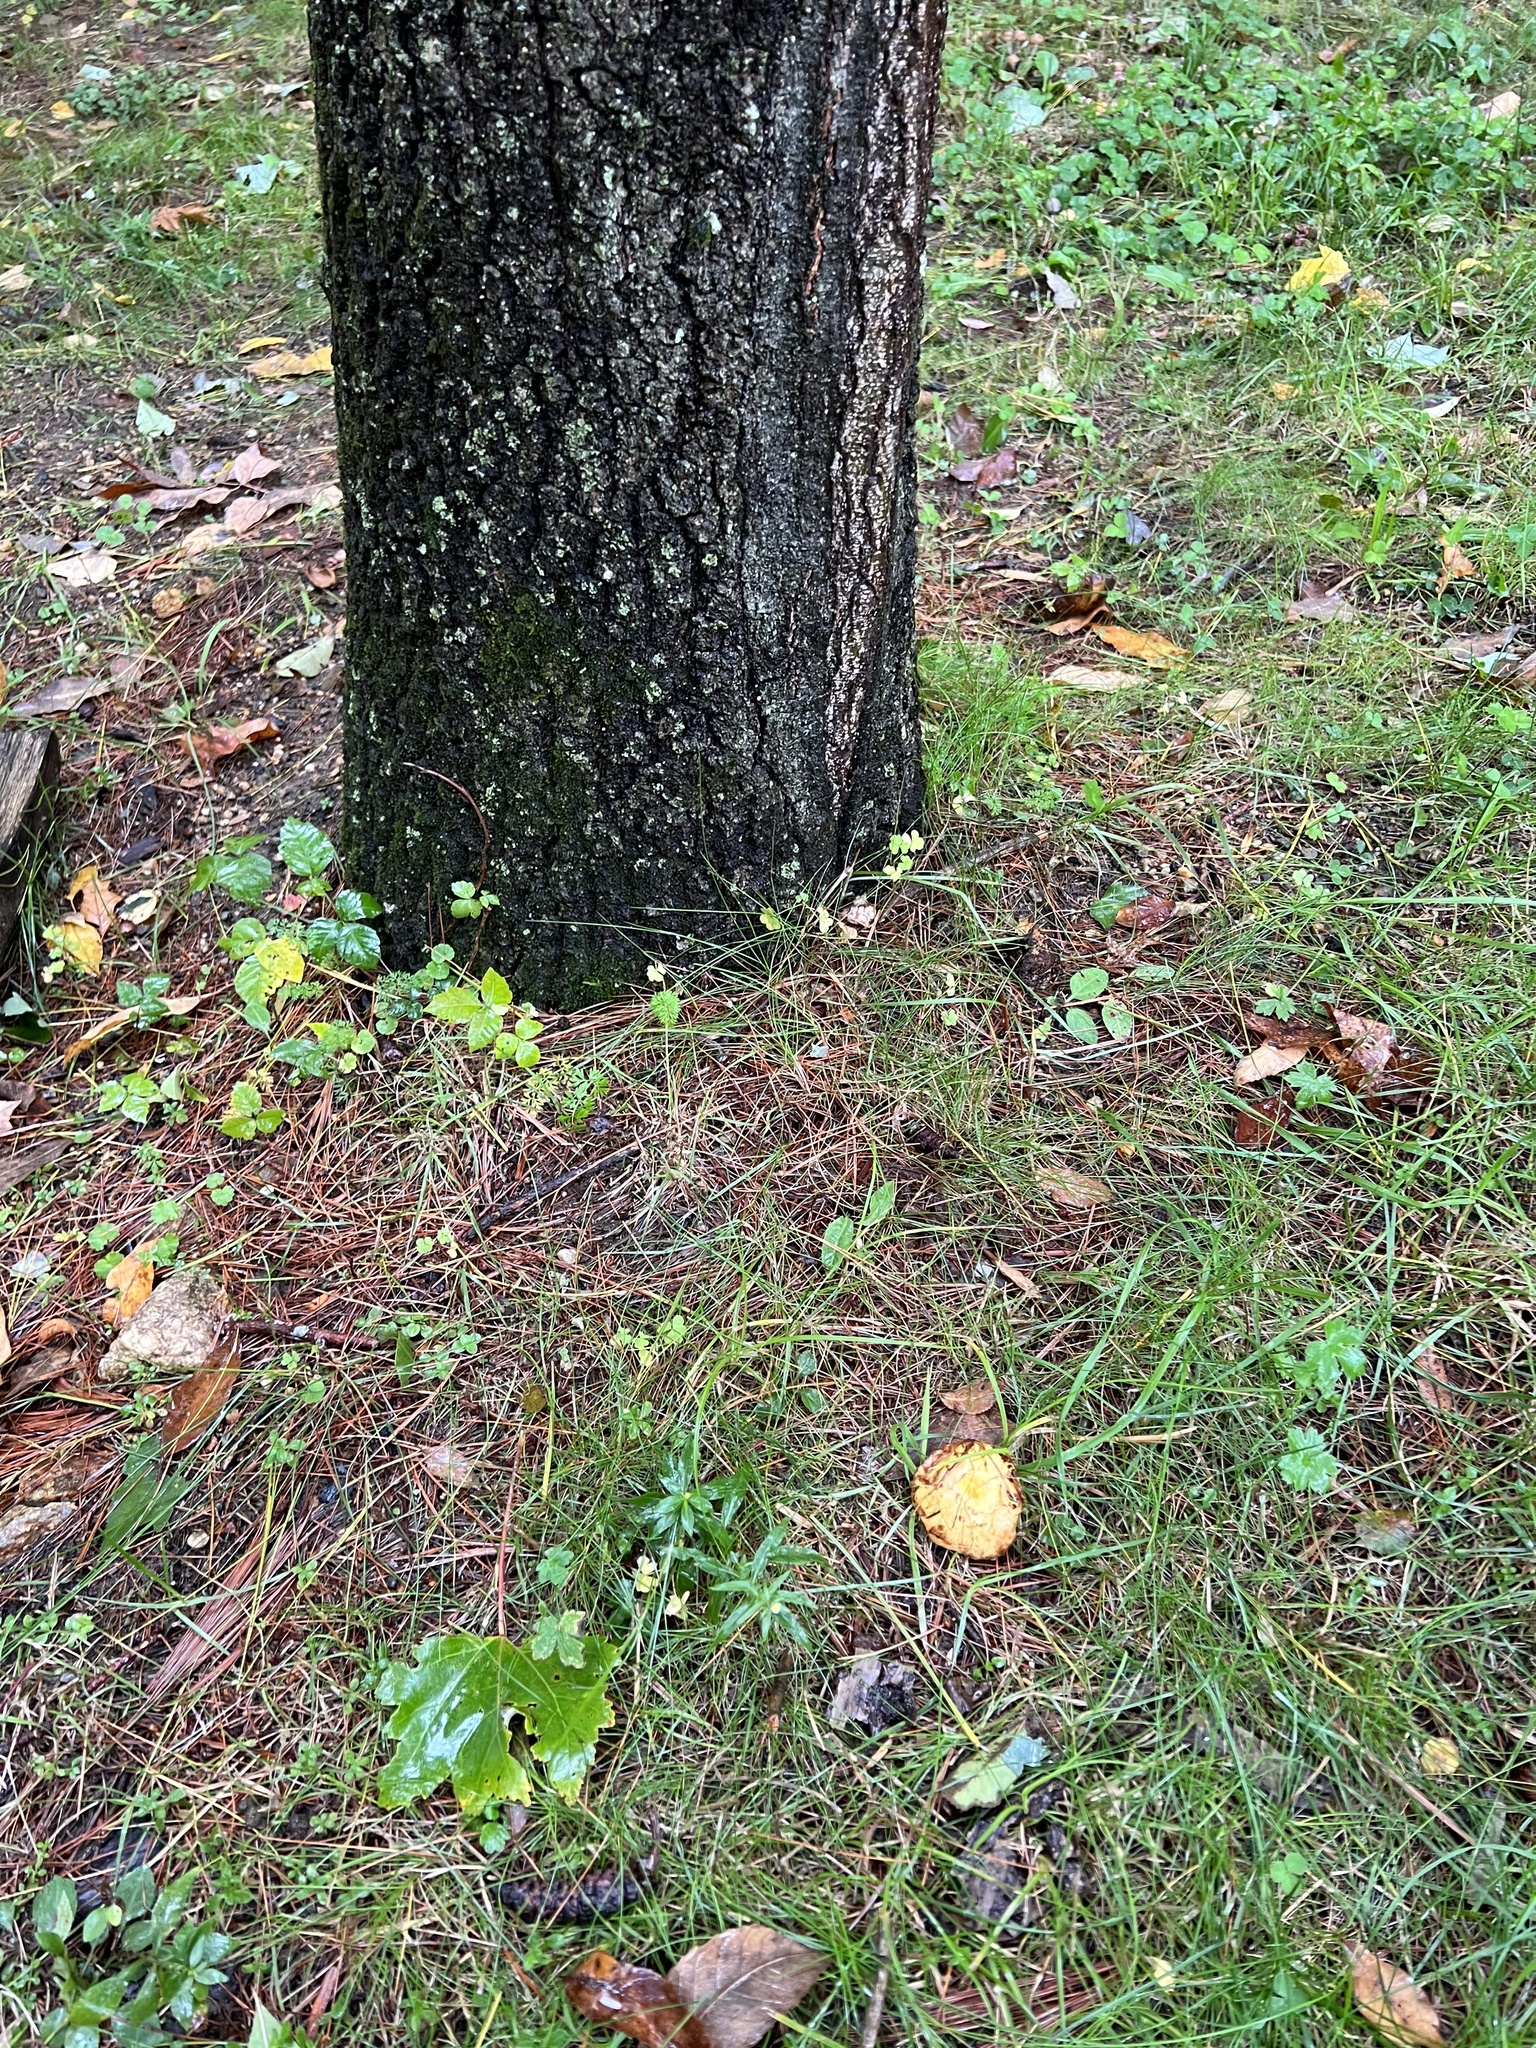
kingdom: Fungi
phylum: Basidiomycota
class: Agaricomycetes
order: Boletales
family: Suillaceae
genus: Suillus
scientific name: Suillus americanus
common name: Chicken fat mushroom
